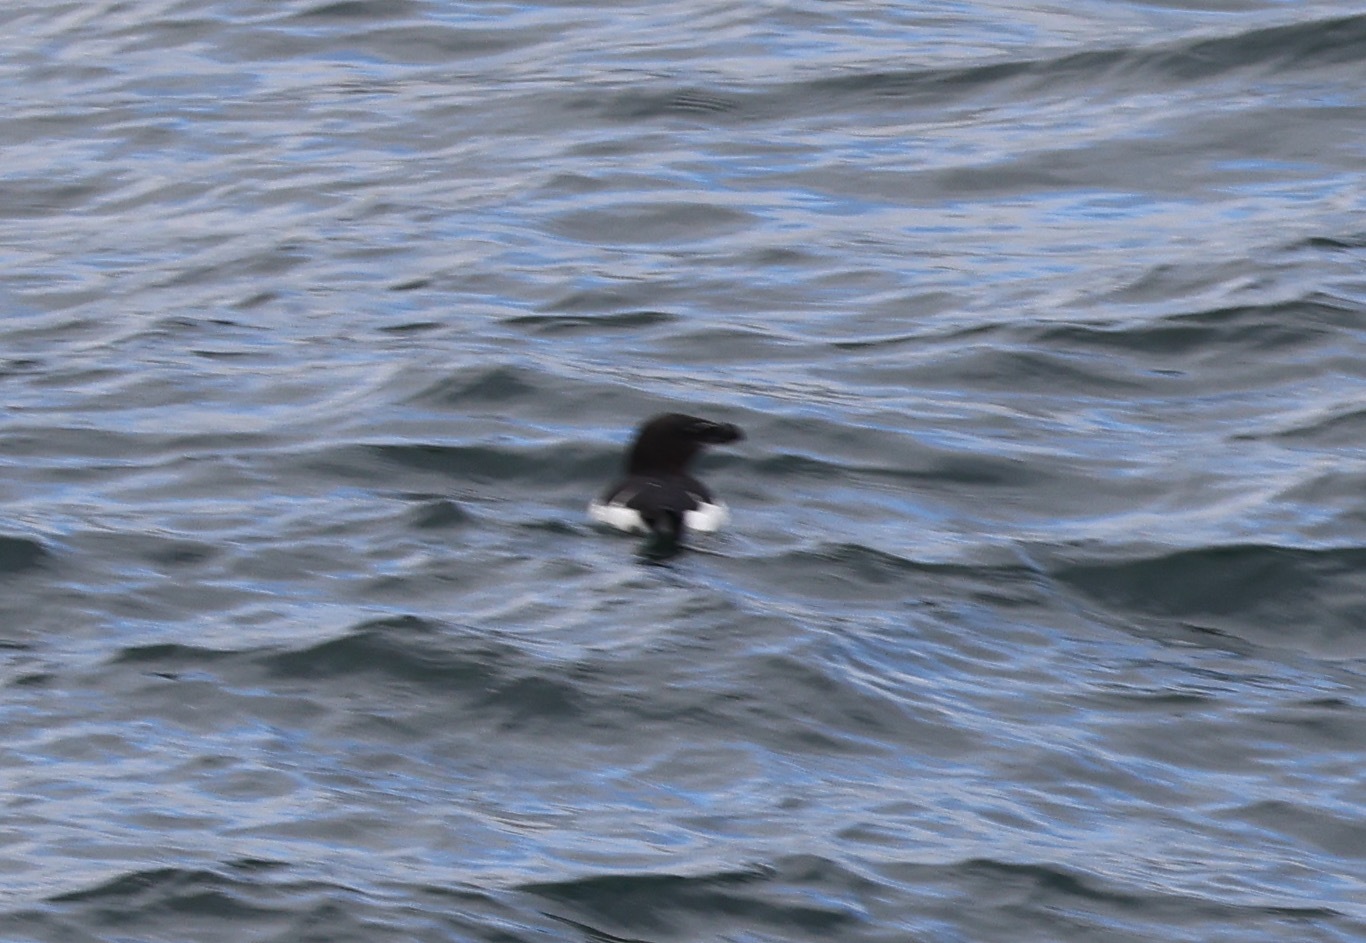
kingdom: Animalia
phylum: Chordata
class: Aves
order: Charadriiformes
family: Alcidae
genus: Alca
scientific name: Alca torda
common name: Razorbill
